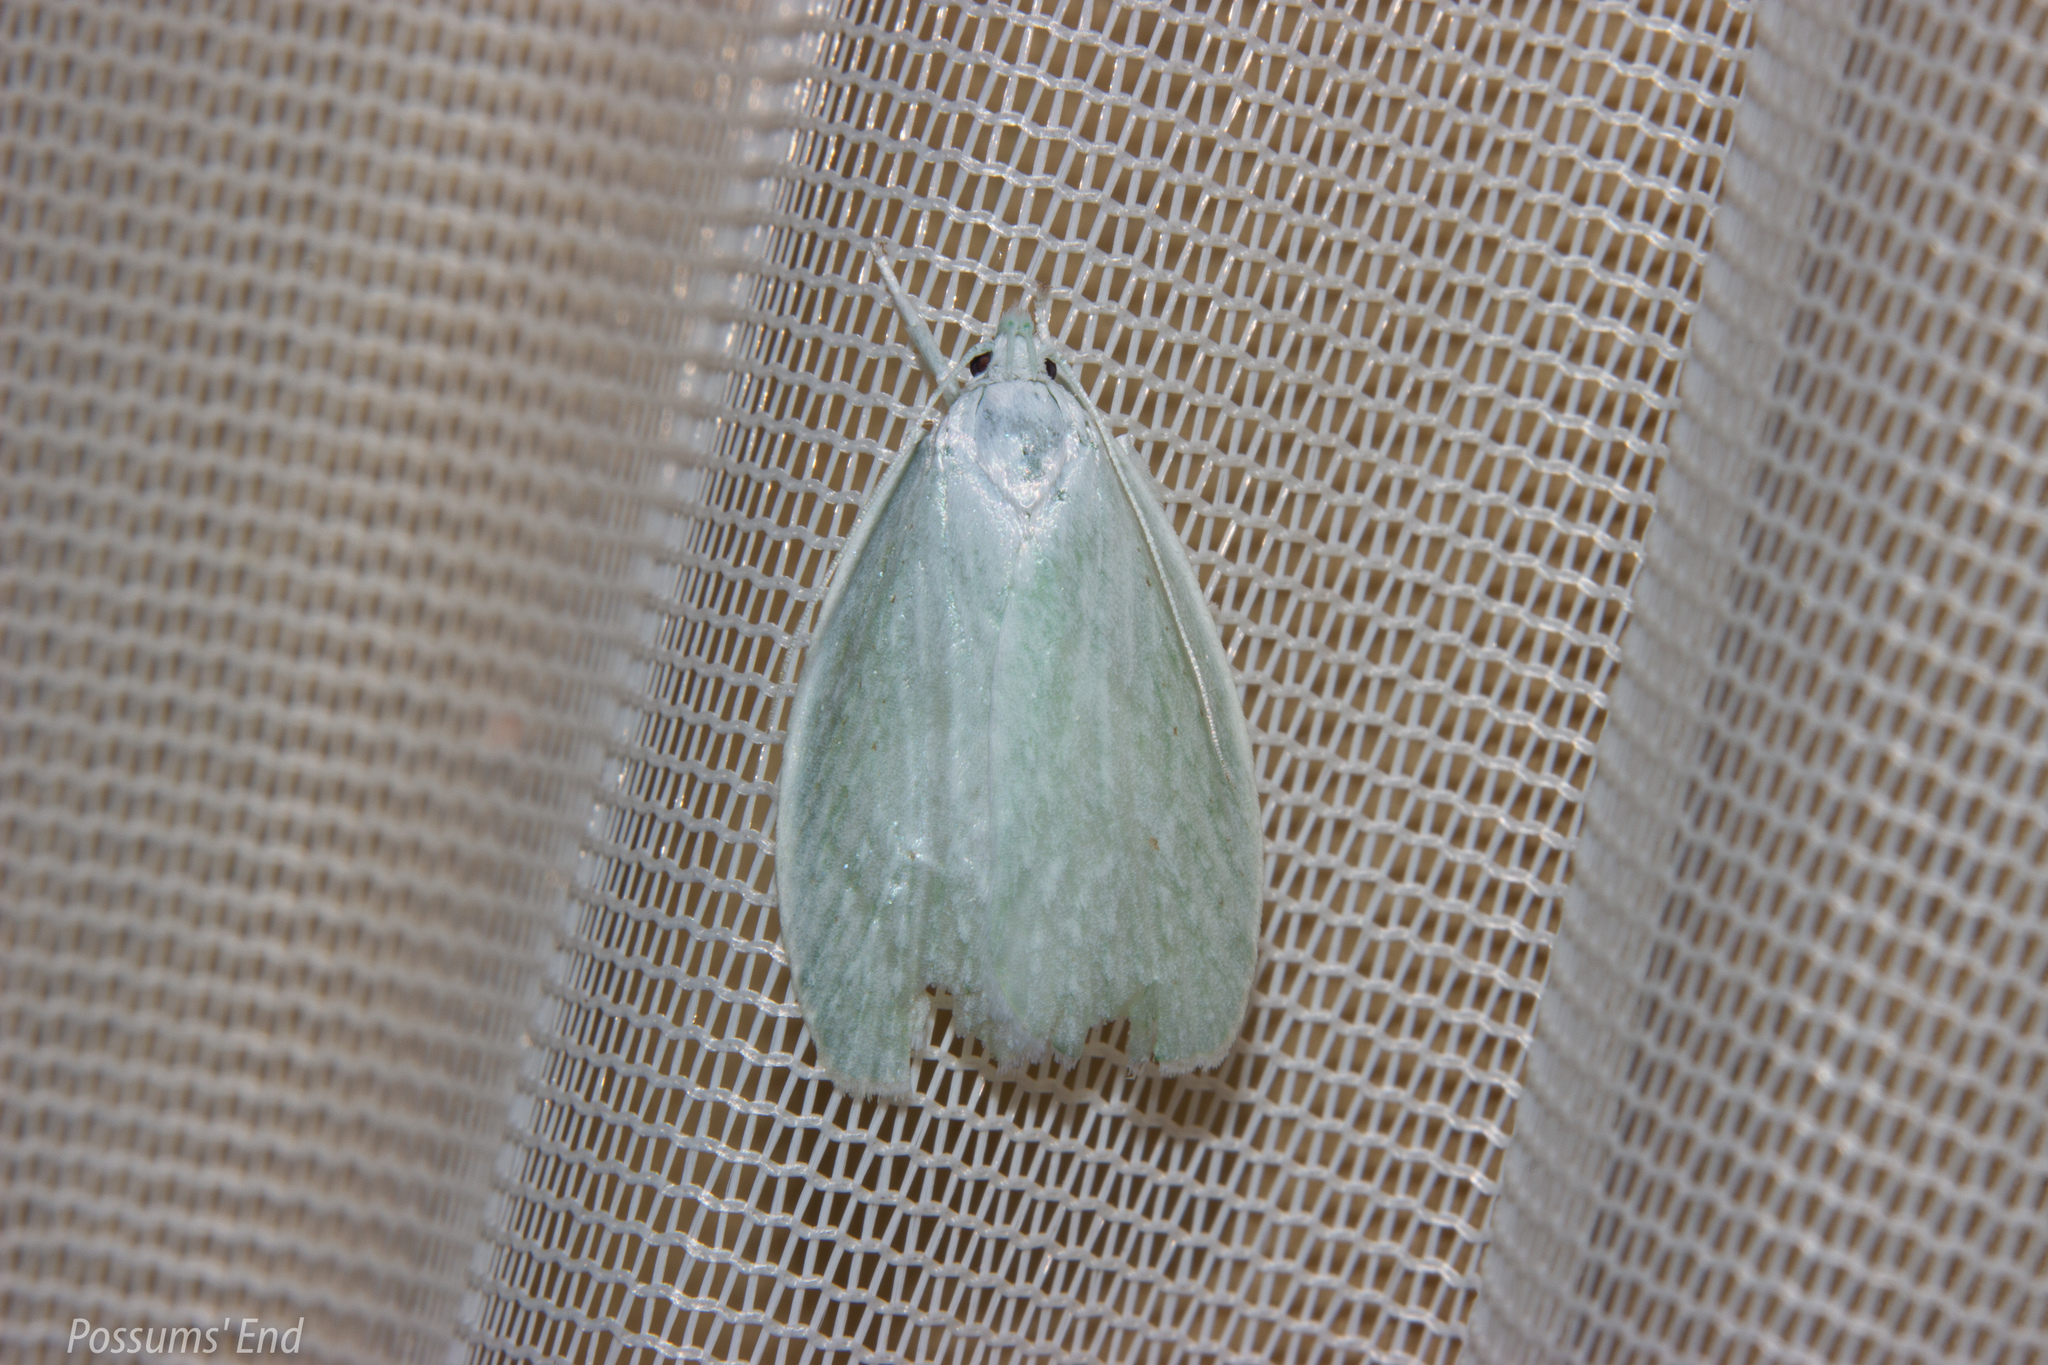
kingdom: Animalia
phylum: Arthropoda
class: Insecta
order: Lepidoptera
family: Oecophoridae
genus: Nymphostola
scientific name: Nymphostola galactina
